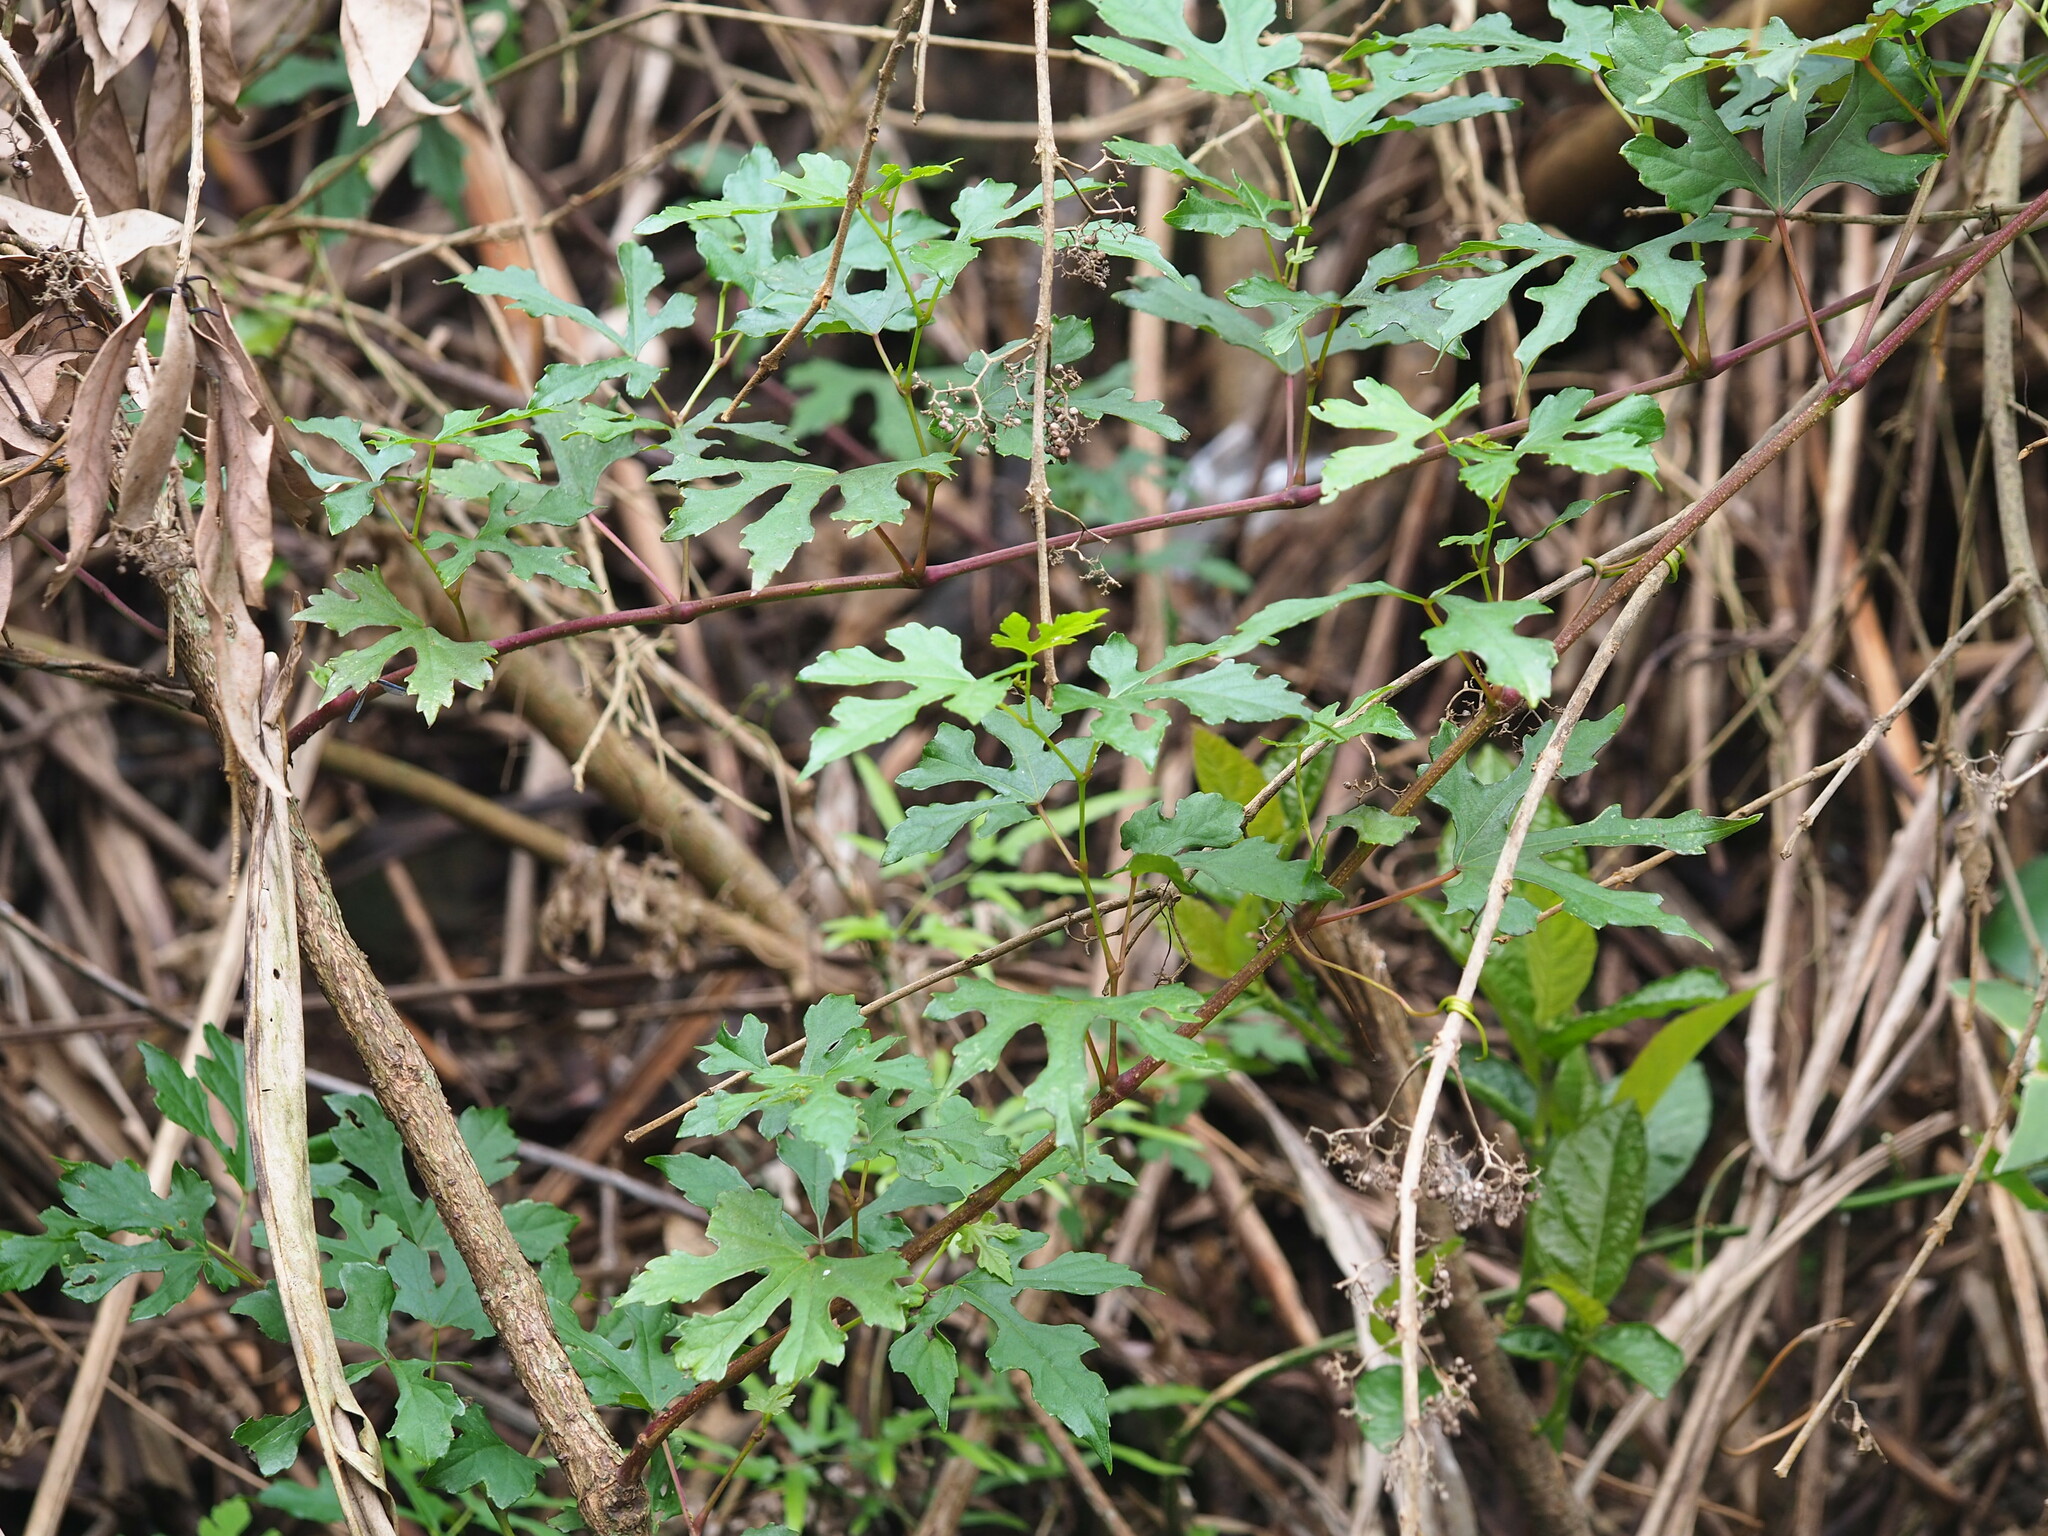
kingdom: Plantae
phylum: Tracheophyta
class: Magnoliopsida
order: Vitales
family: Vitaceae
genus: Ampelopsis
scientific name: Ampelopsis glandulosa
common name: Amur peppervine
